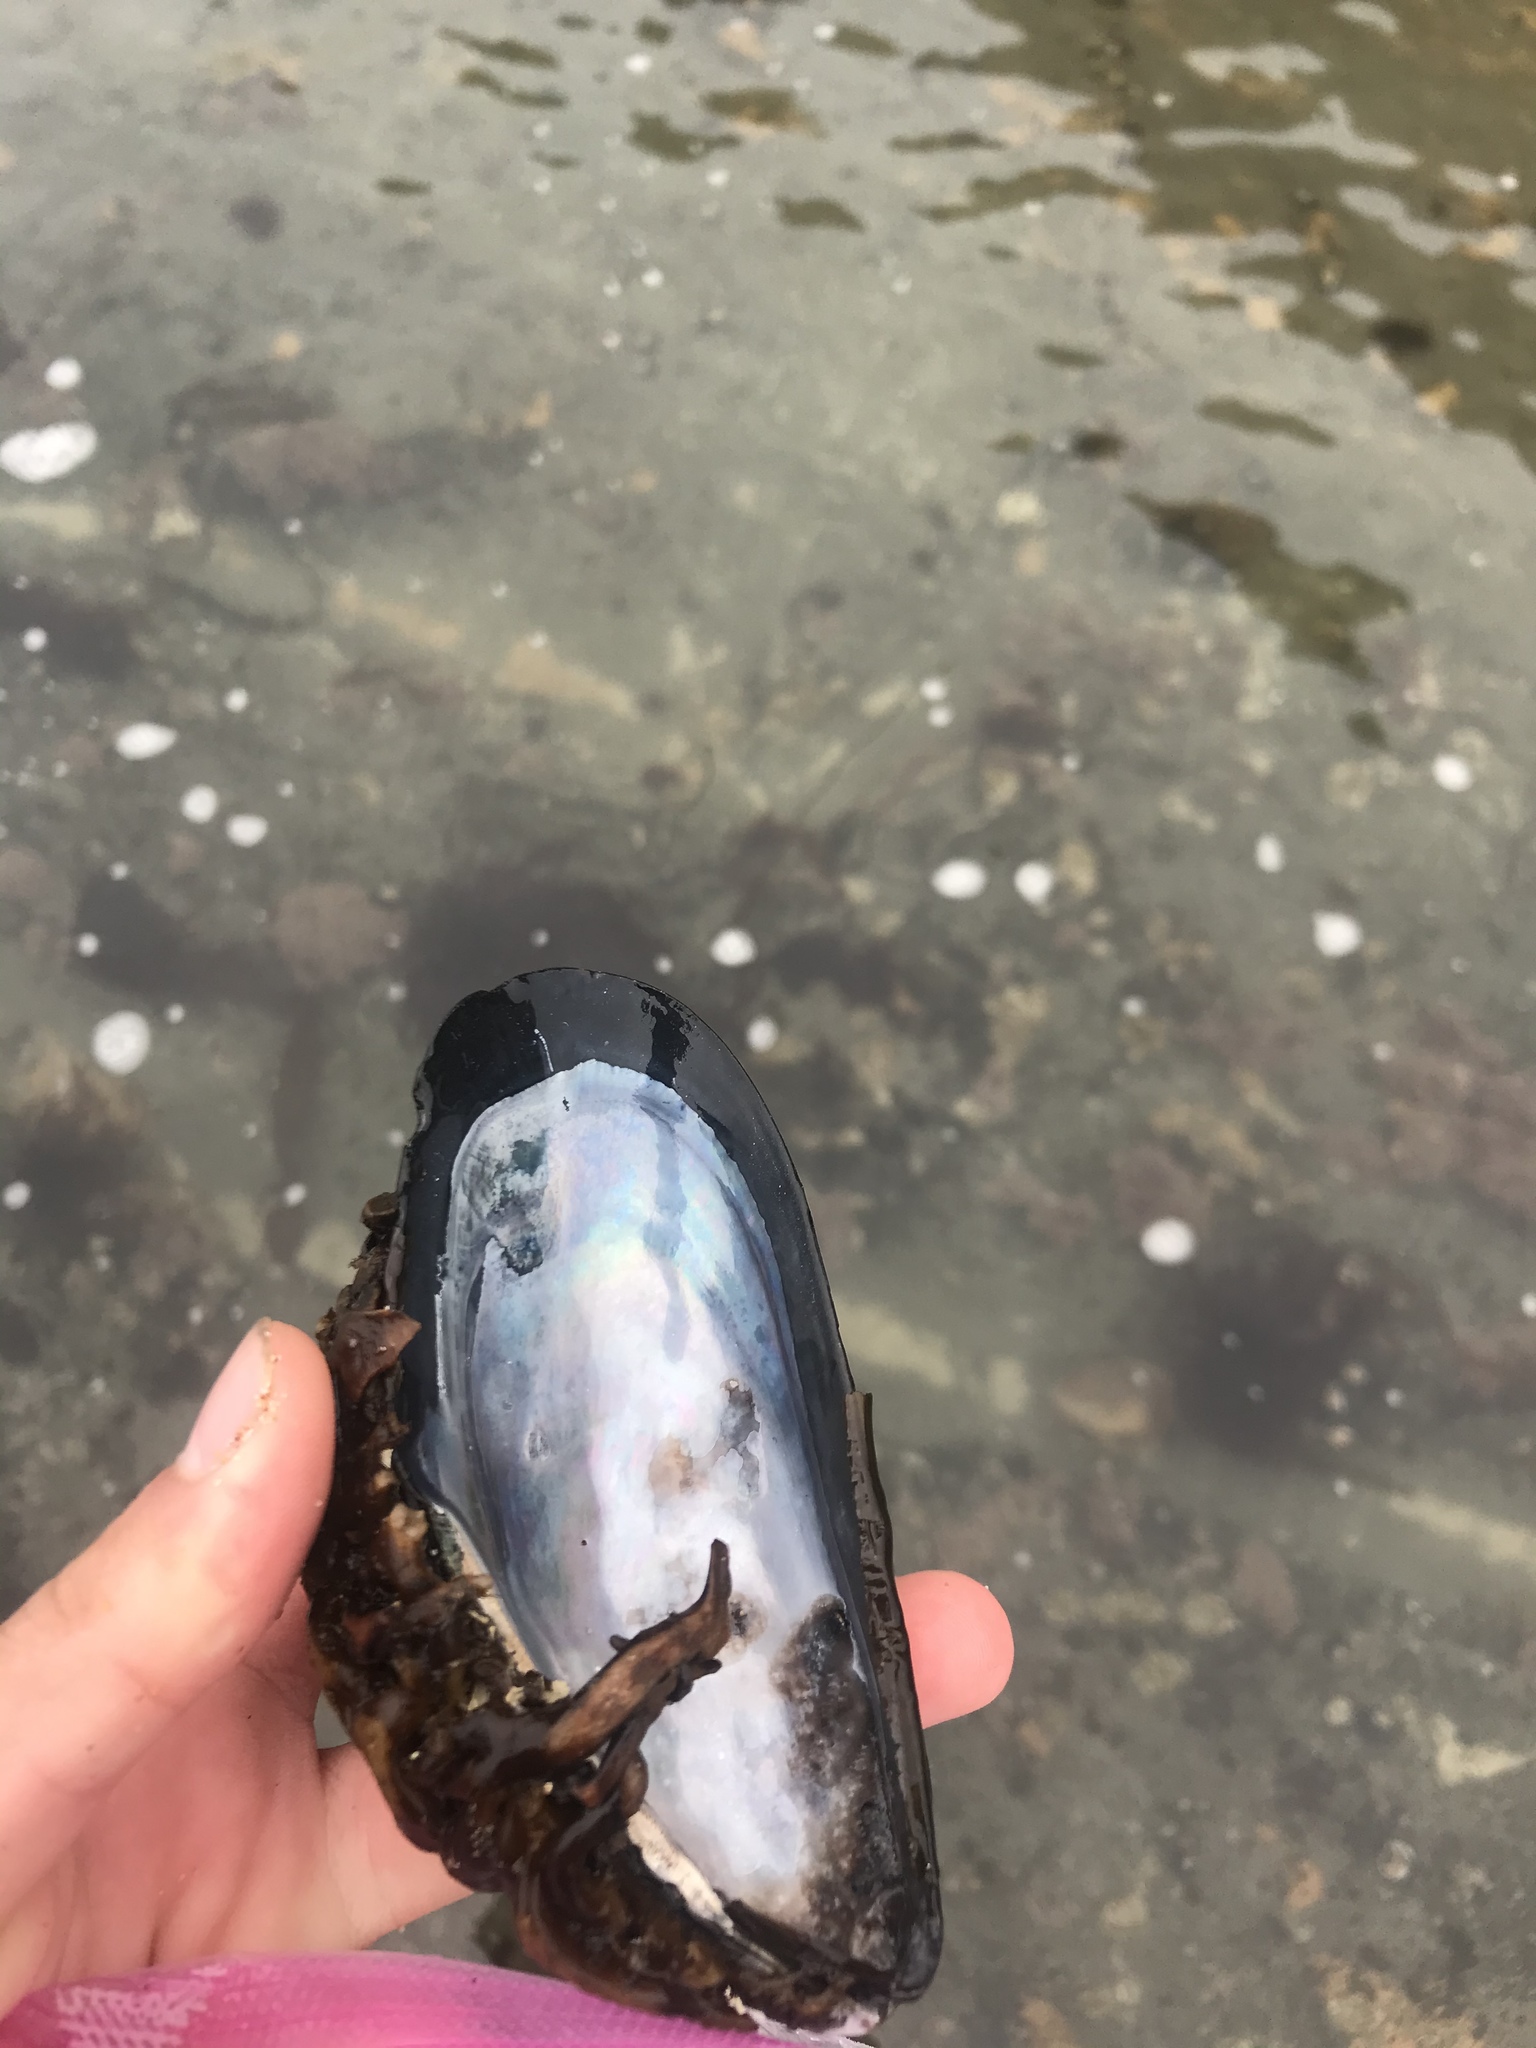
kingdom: Animalia
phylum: Mollusca
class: Bivalvia
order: Mytilida
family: Mytilidae
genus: Mytilus
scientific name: Mytilus californianus
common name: California mussel
